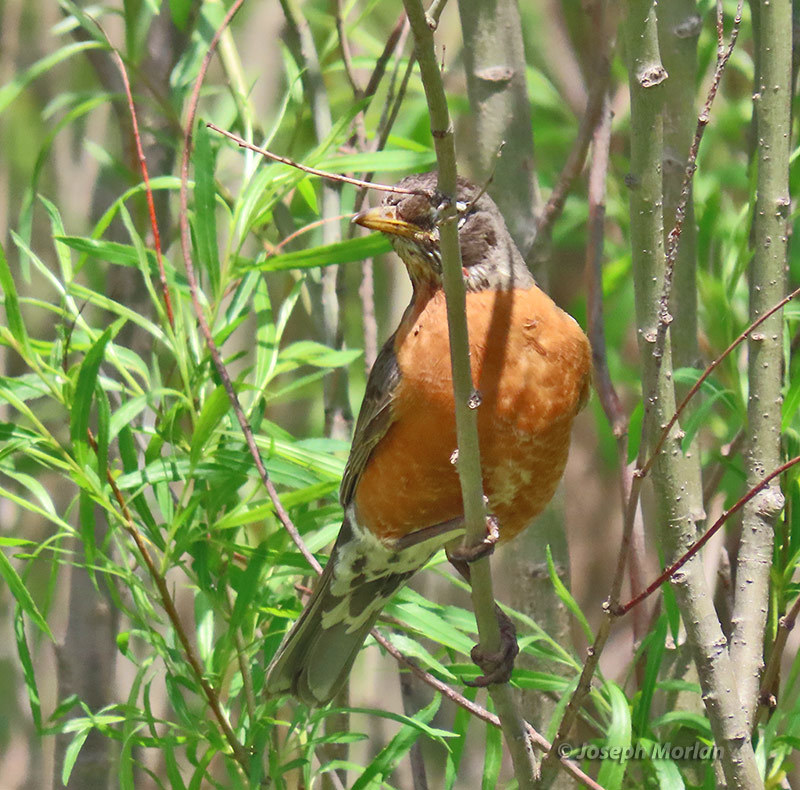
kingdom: Animalia
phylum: Chordata
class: Aves
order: Passeriformes
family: Turdidae
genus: Turdus
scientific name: Turdus migratorius
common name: American robin
